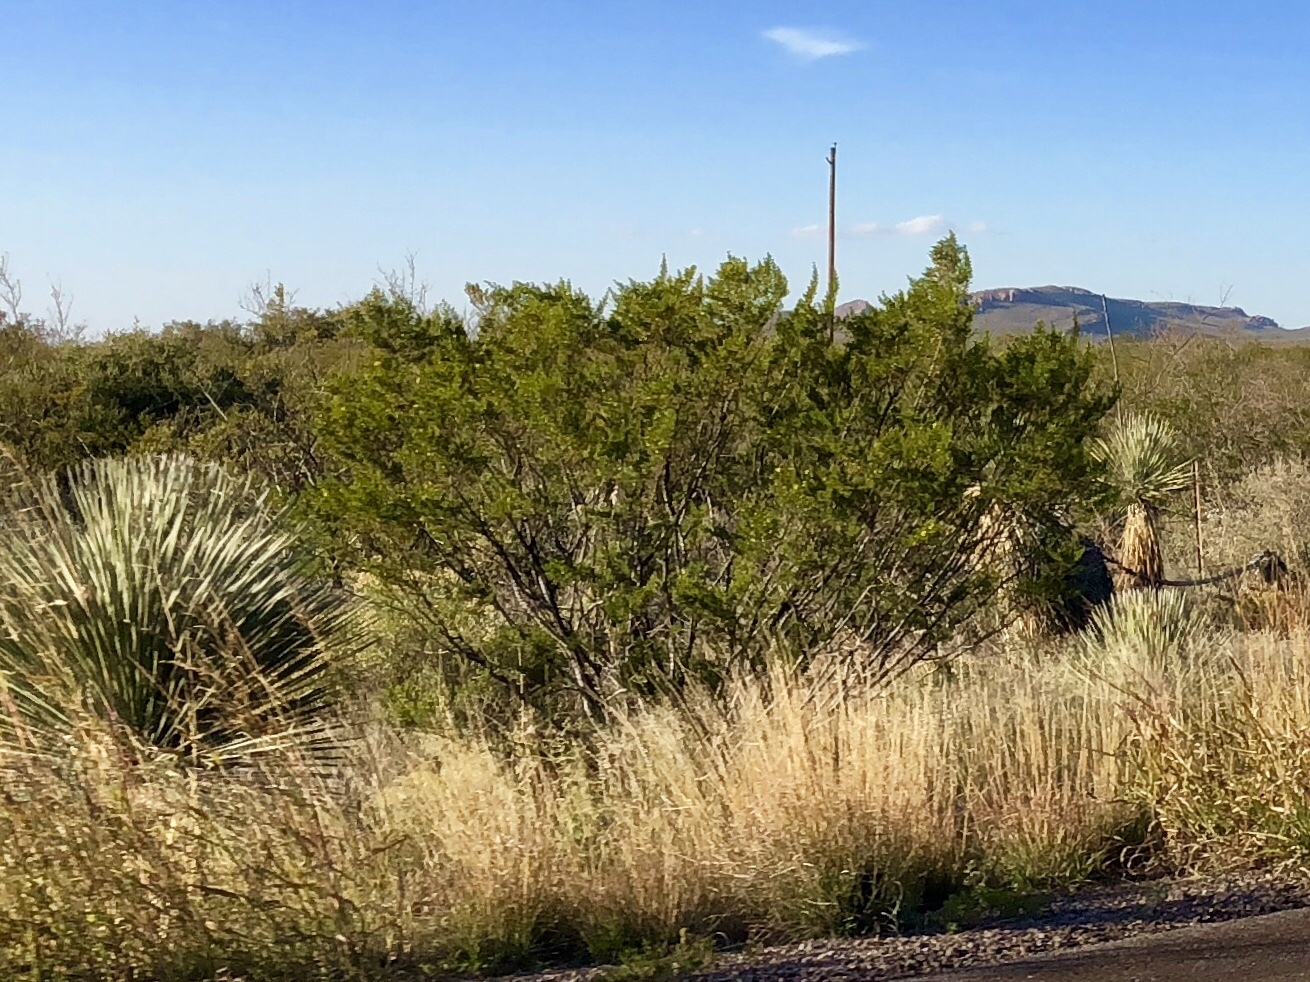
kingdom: Plantae
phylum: Tracheophyta
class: Magnoliopsida
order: Zygophyllales
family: Zygophyllaceae
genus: Larrea
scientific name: Larrea tridentata
